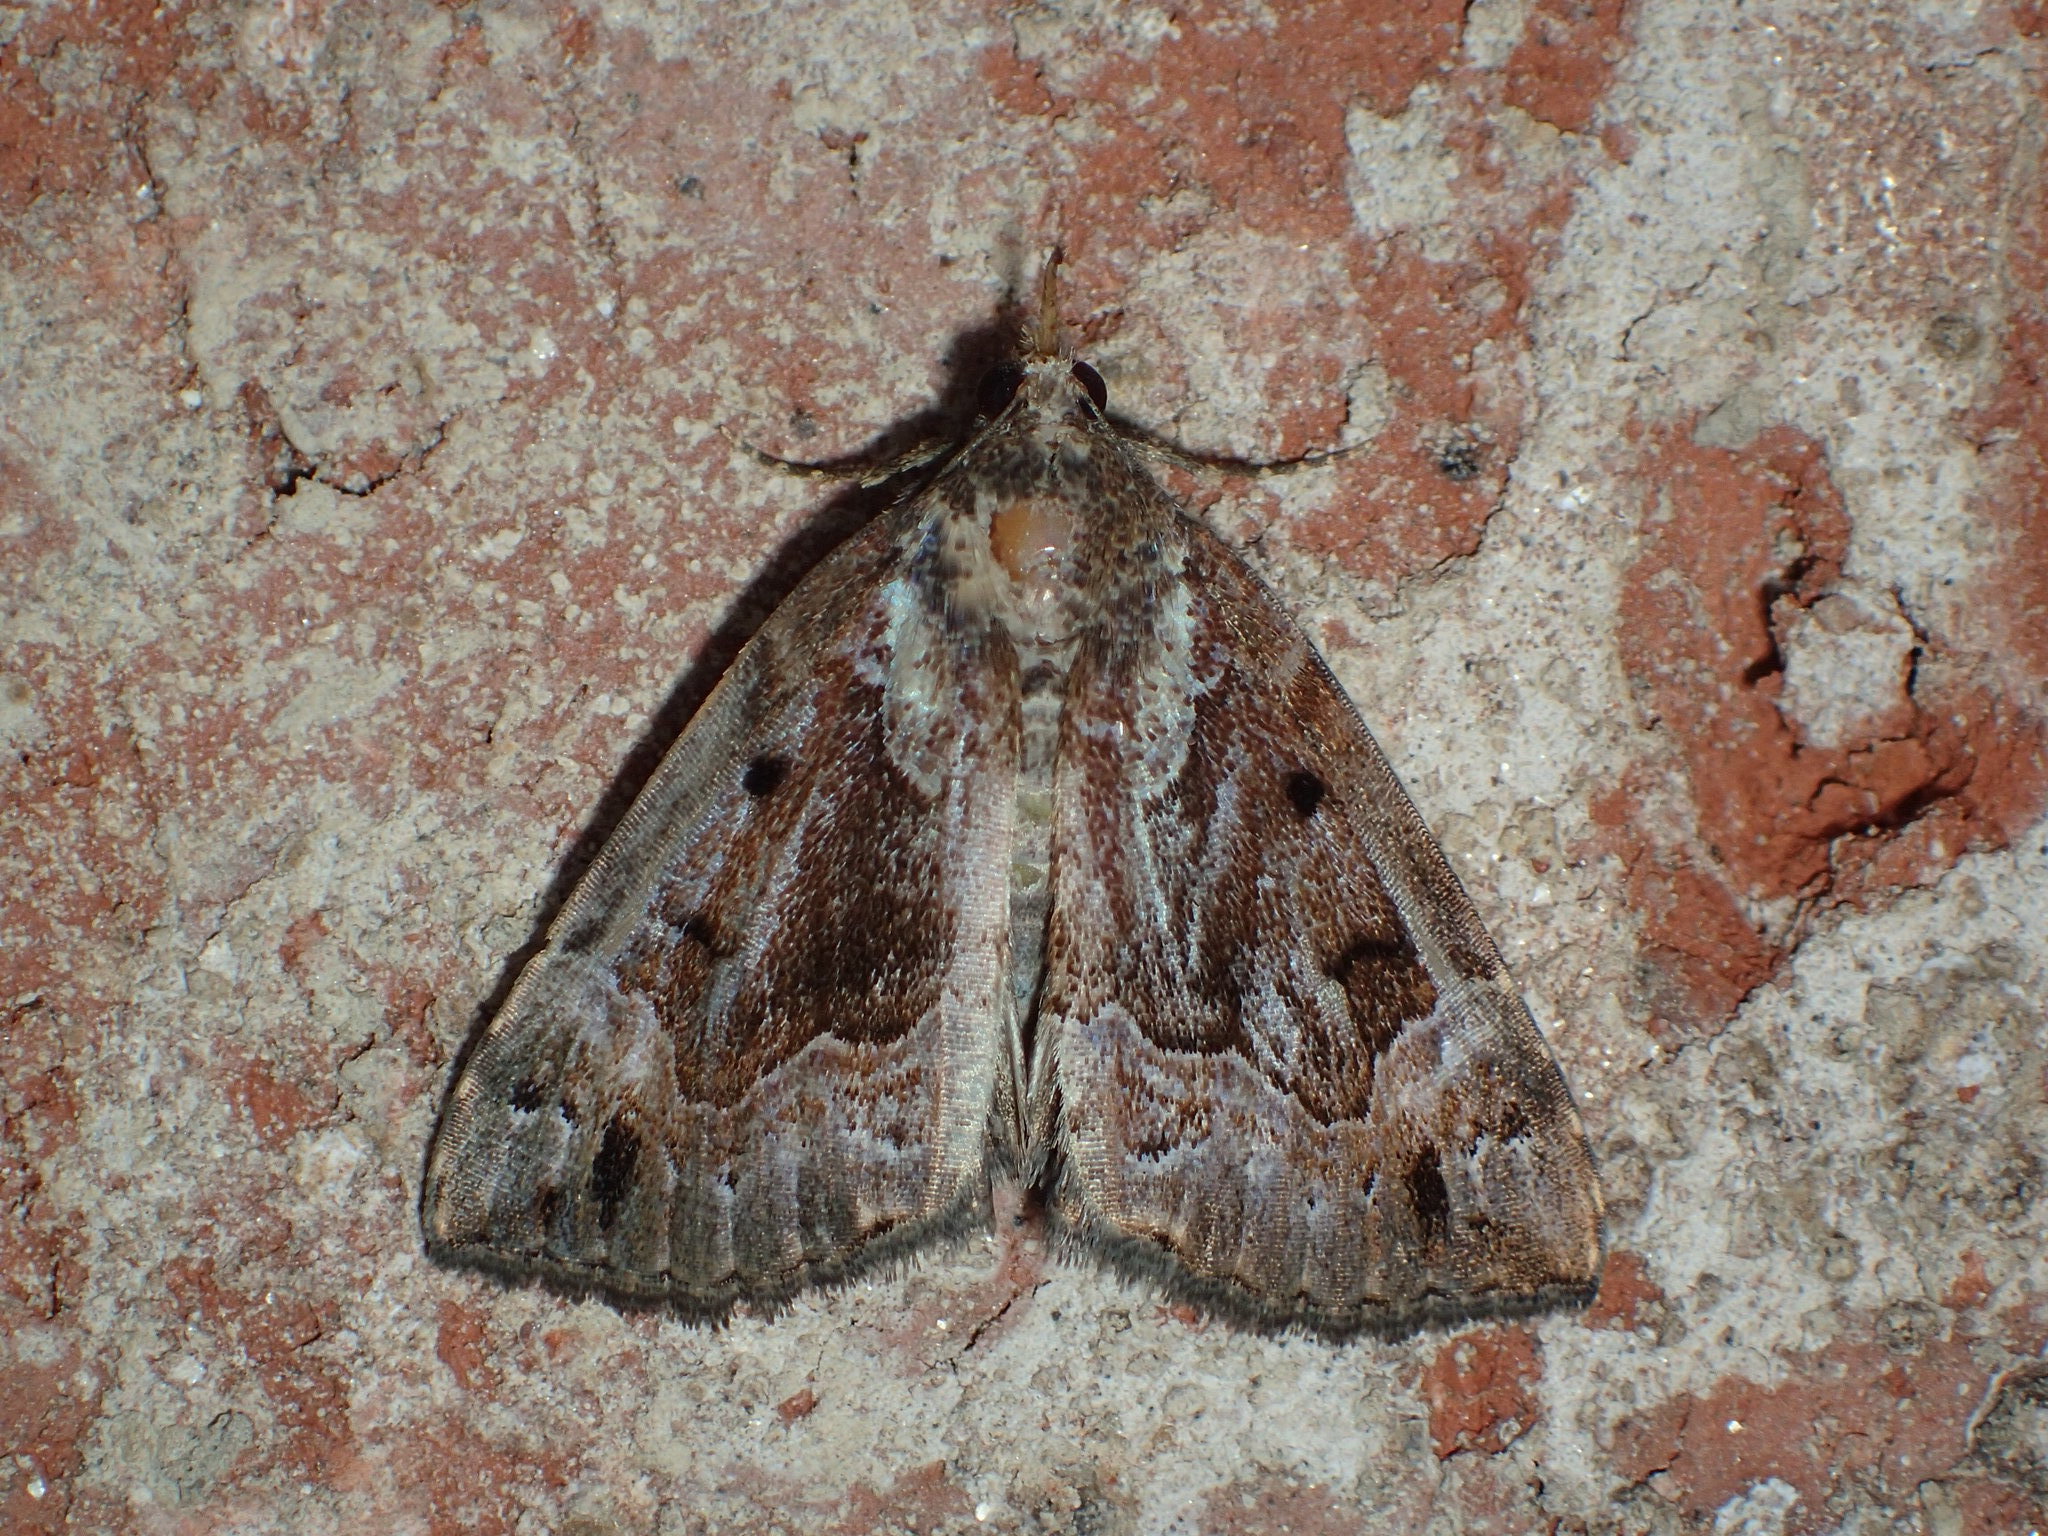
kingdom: Animalia
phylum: Arthropoda
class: Insecta
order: Lepidoptera
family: Erebidae
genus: Hypena
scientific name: Hypena palparia
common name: Mottled bomolocha moth
